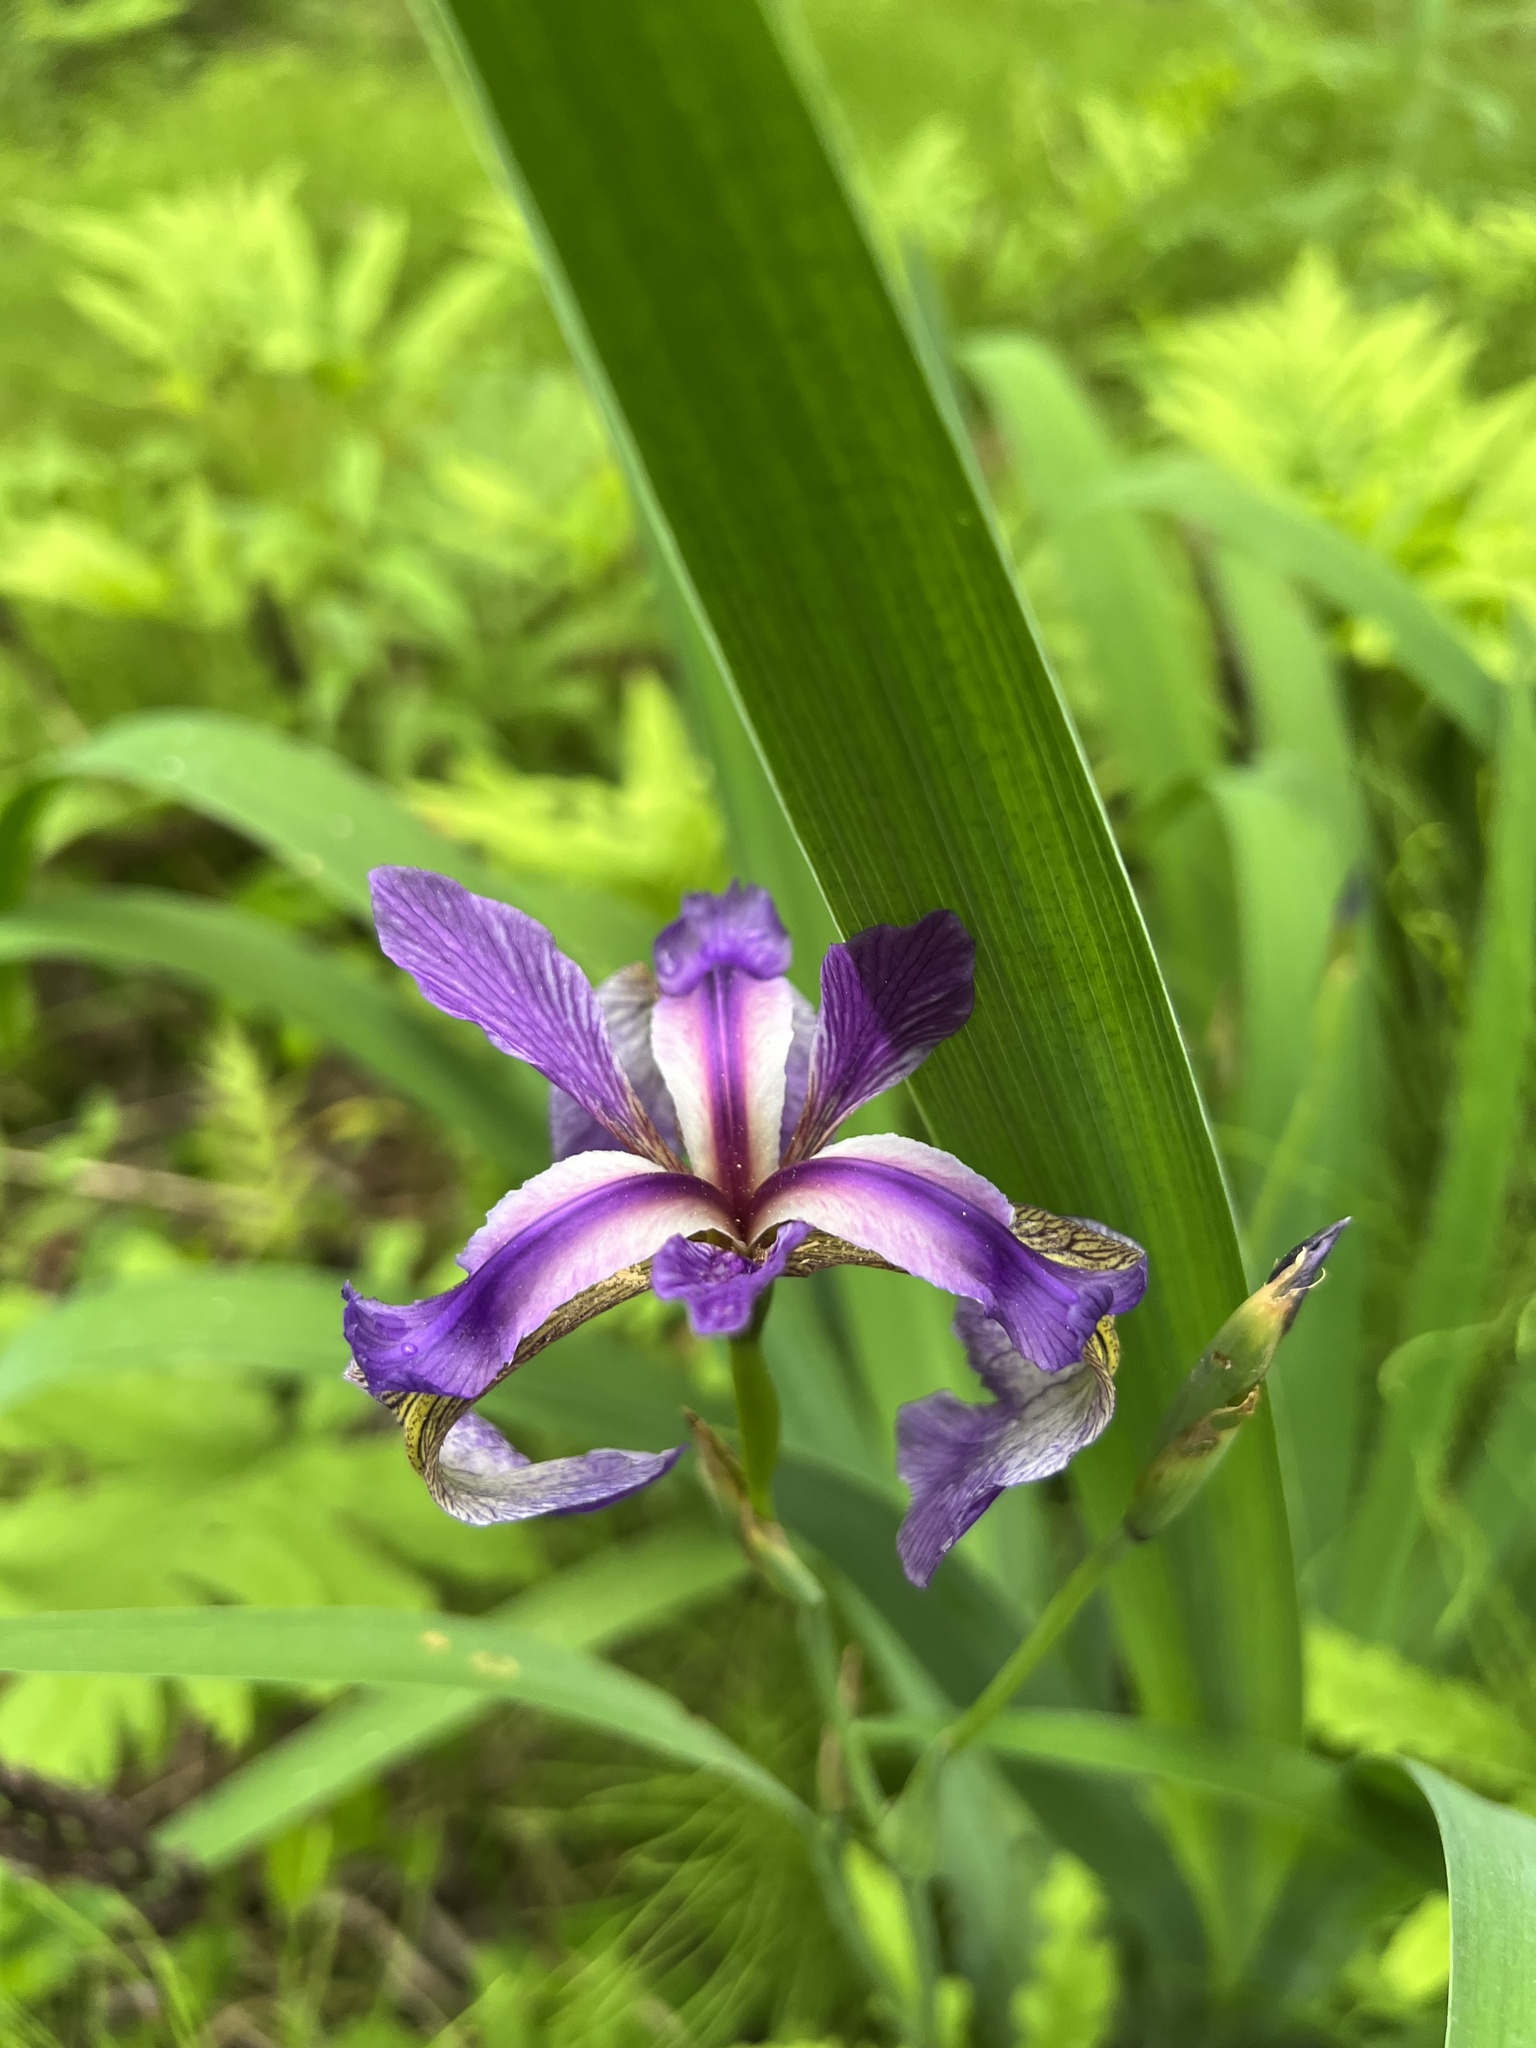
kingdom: Plantae
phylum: Tracheophyta
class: Liliopsida
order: Asparagales
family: Iridaceae
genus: Iris
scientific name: Iris versicolor
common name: Purple iris
